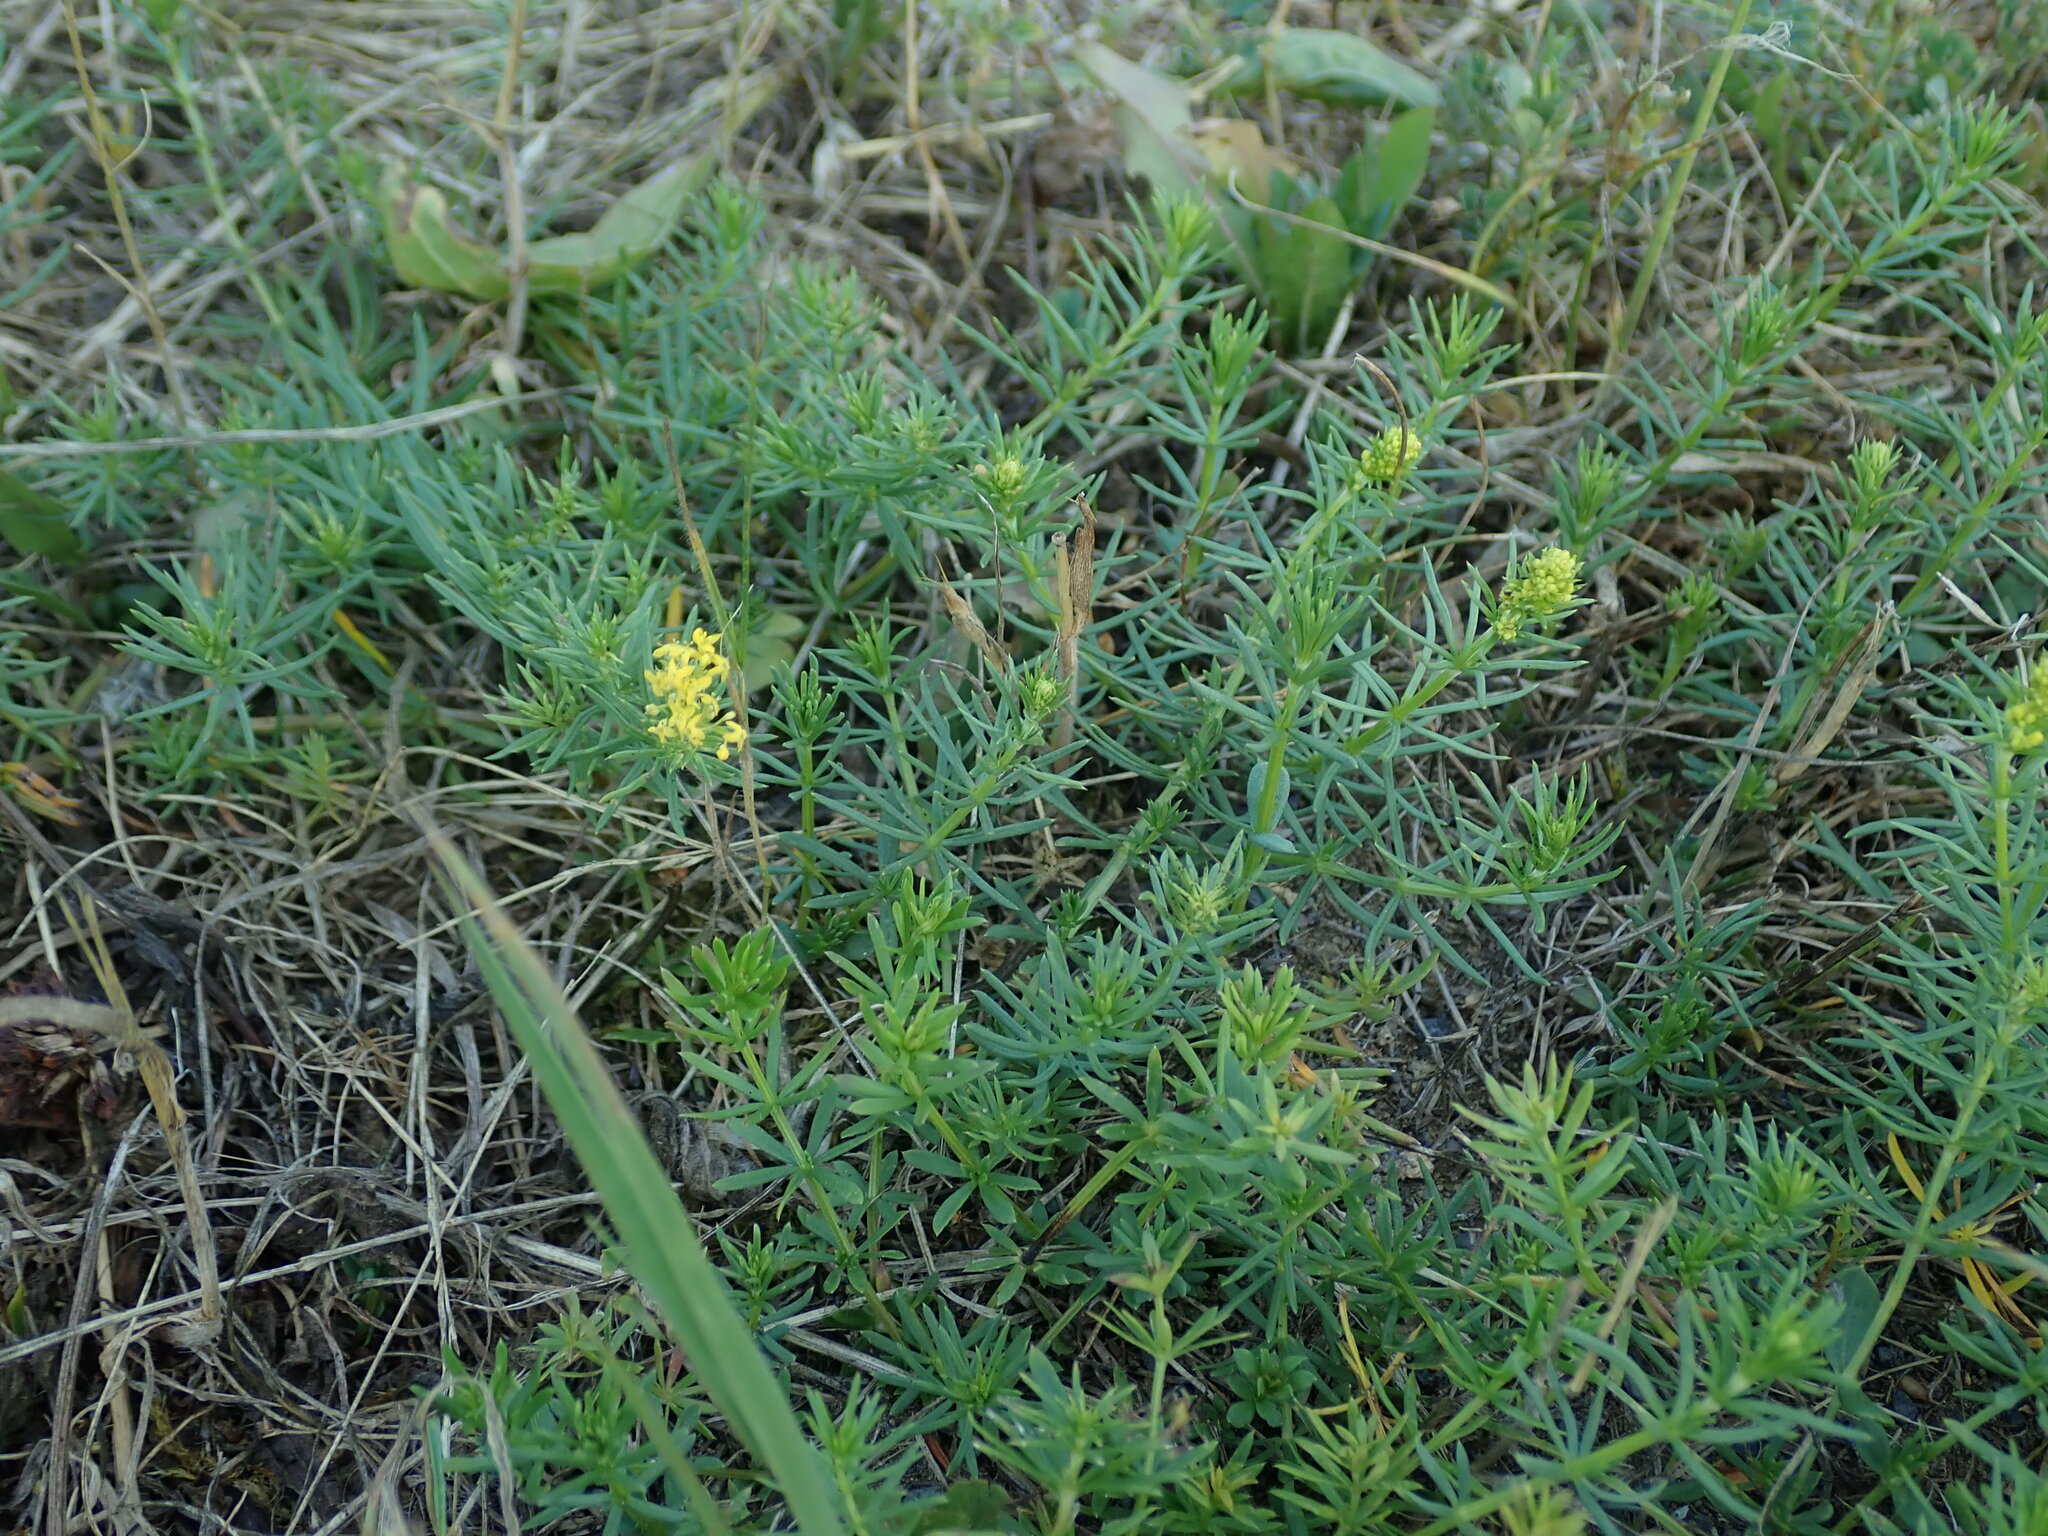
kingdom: Plantae
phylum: Tracheophyta
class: Magnoliopsida
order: Gentianales
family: Rubiaceae
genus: Galium
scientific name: Galium verum
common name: Lady's bedstraw
